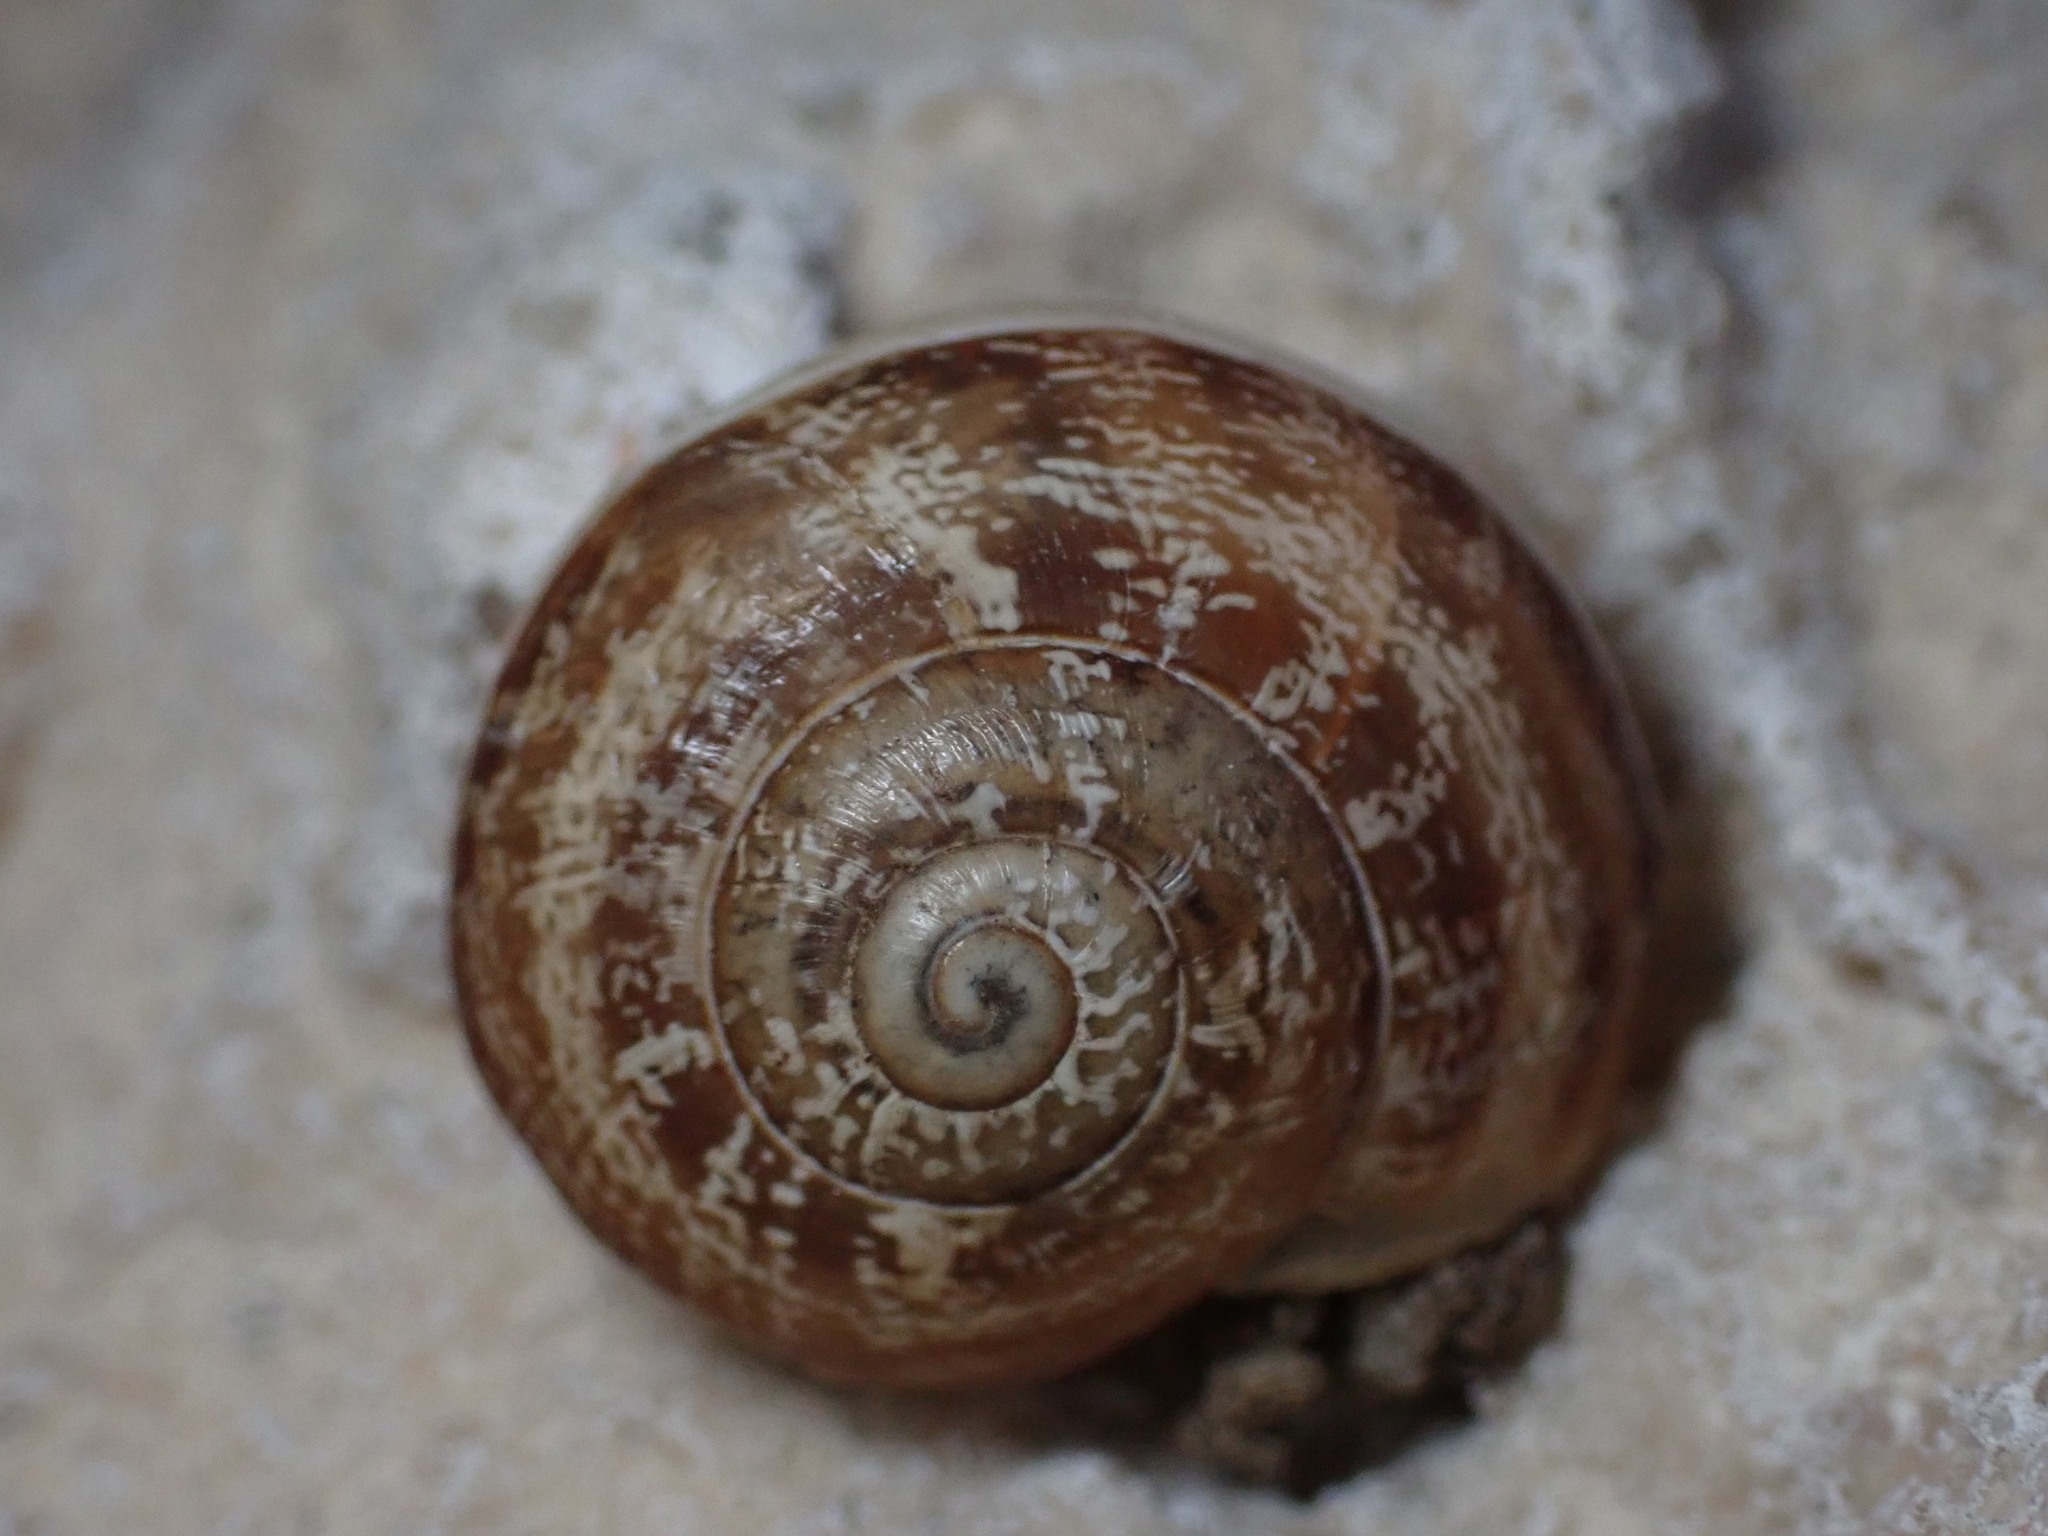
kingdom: Animalia
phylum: Mollusca
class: Gastropoda
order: Stylommatophora
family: Helicidae
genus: Eobania
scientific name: Eobania vermiculata
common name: Chocolateband snail
